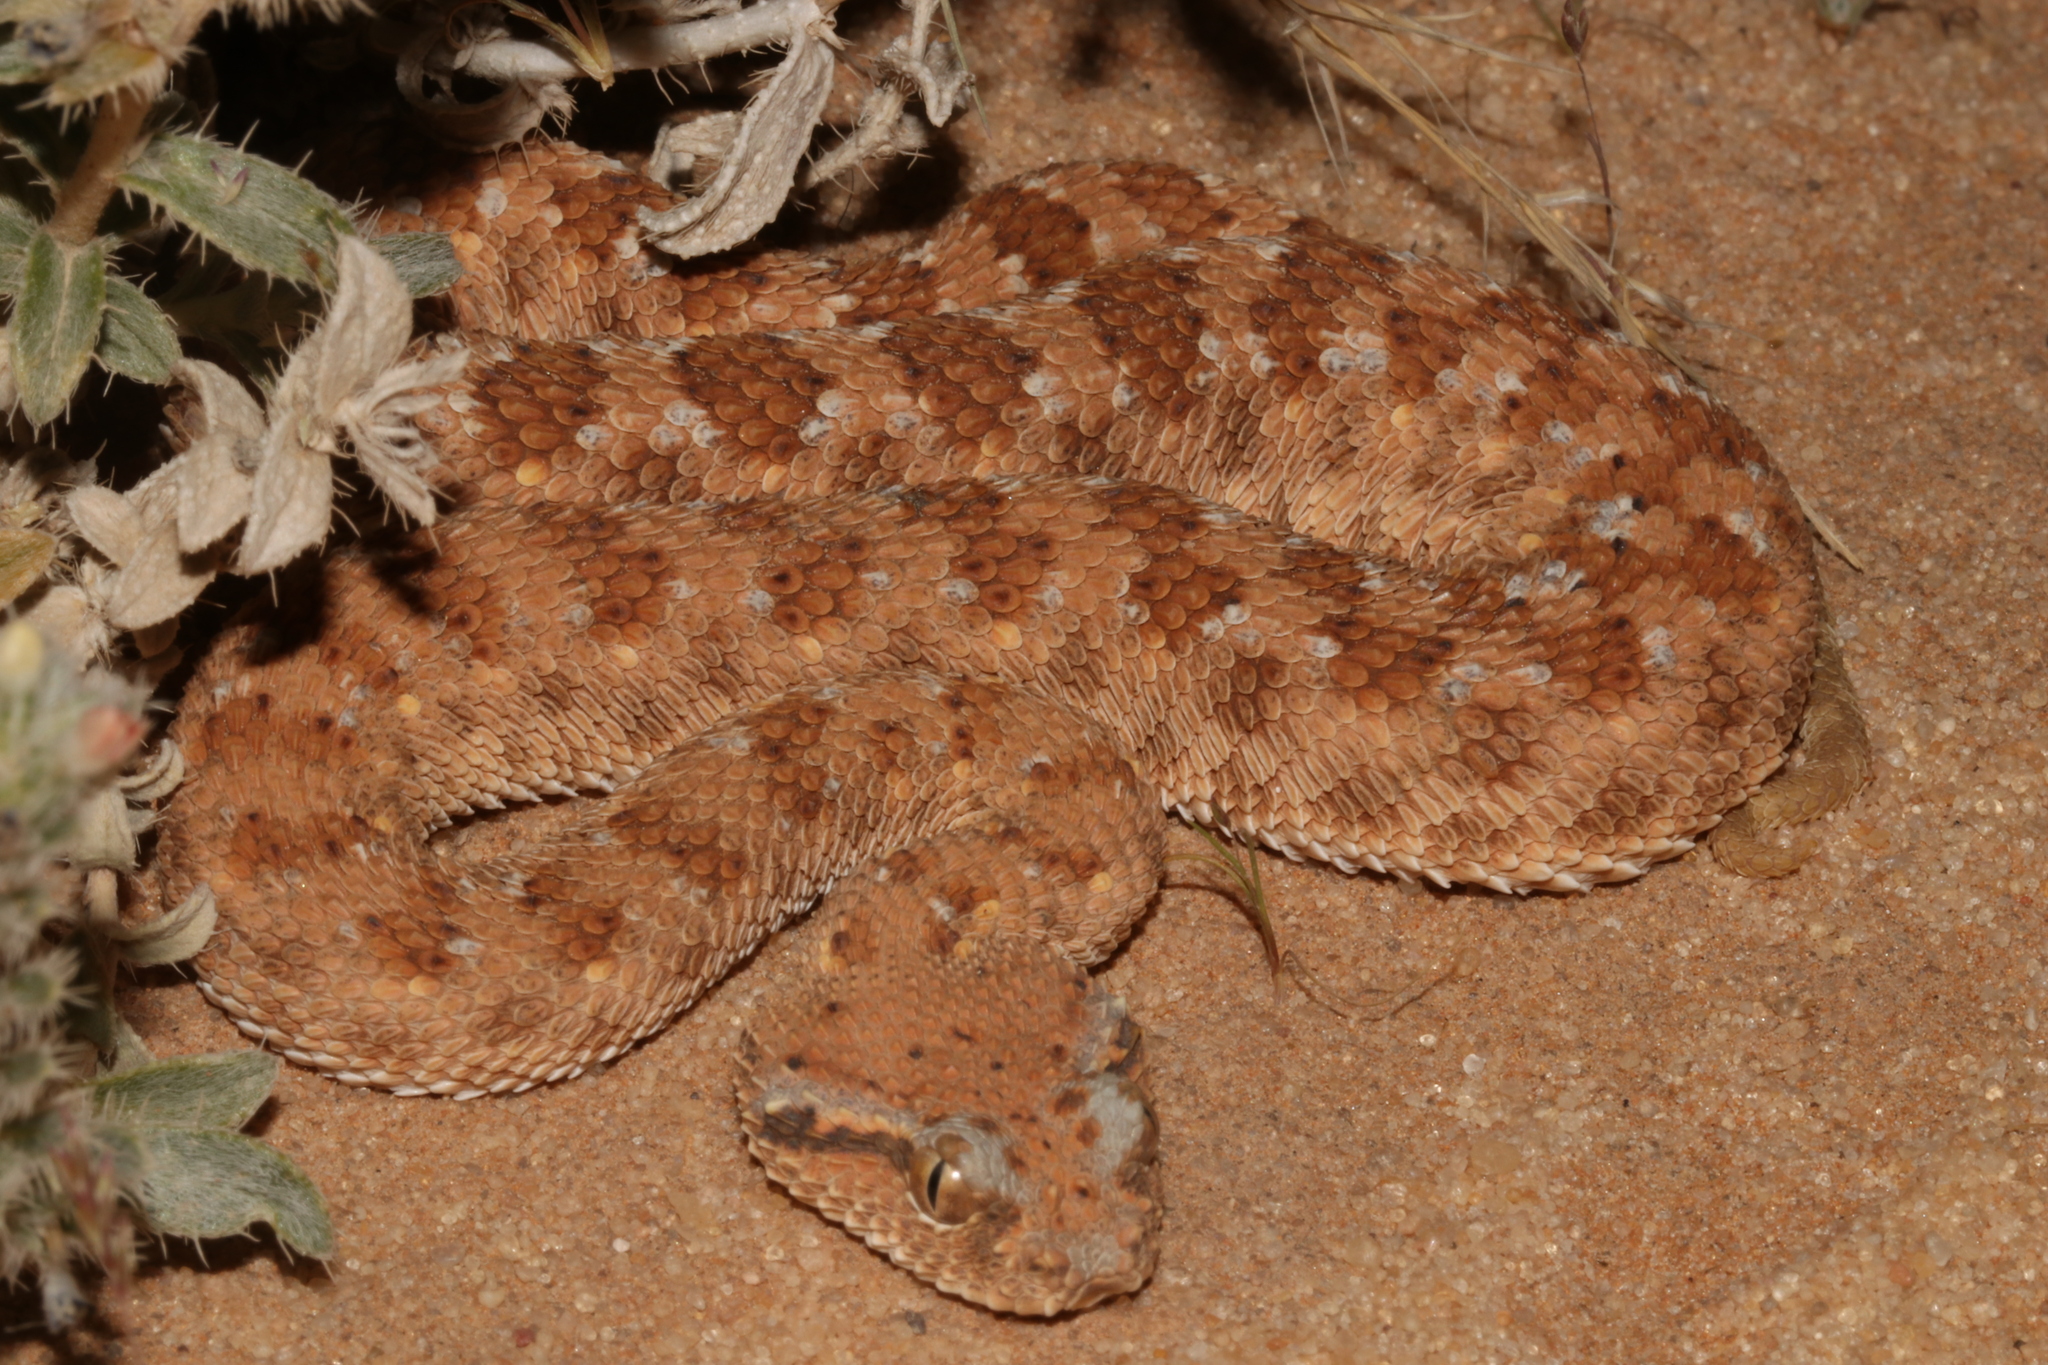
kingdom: Animalia
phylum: Chordata
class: Squamata
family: Viperidae
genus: Cerastes
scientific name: Cerastes gasperettii
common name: Arabian horned viper
